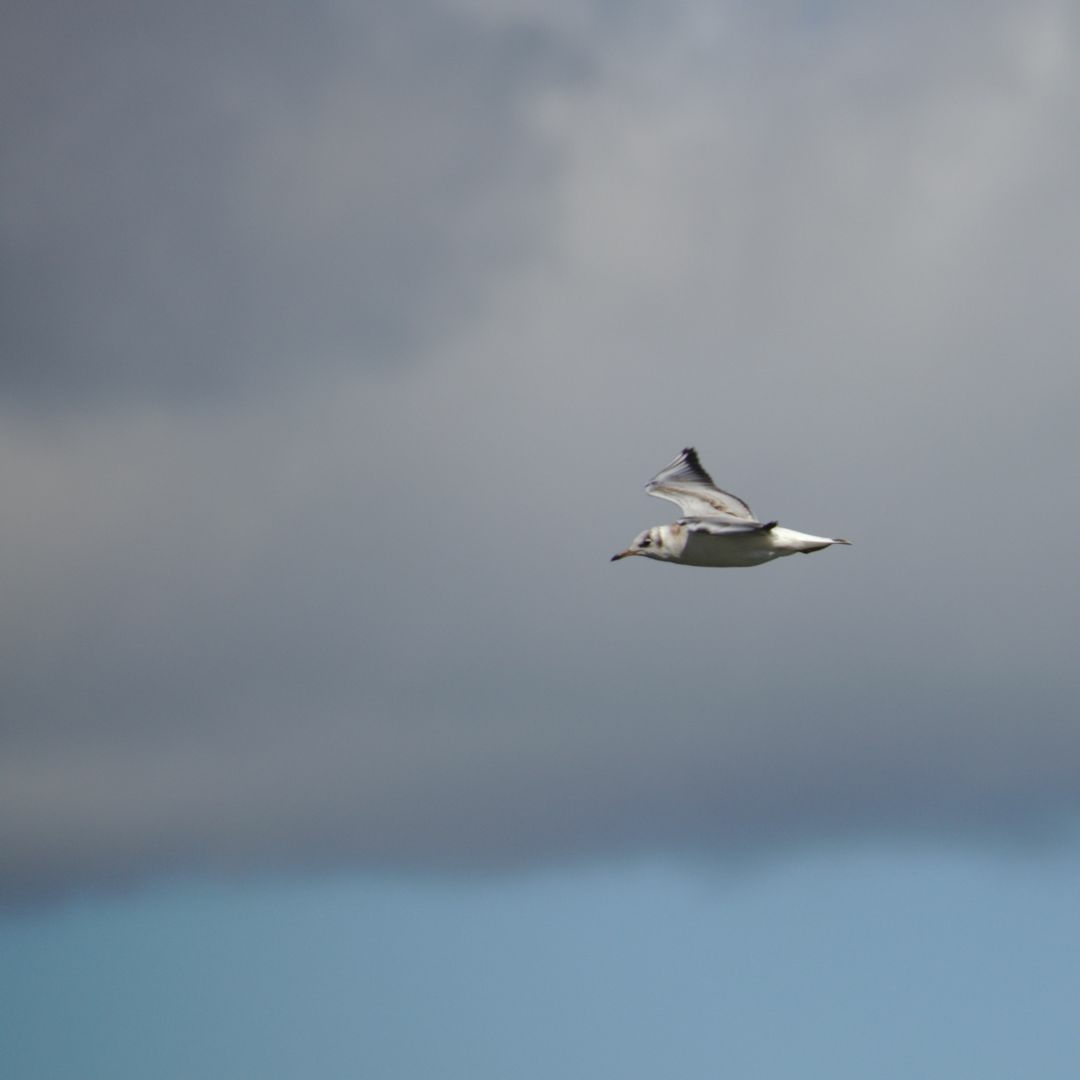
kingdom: Animalia
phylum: Chordata
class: Aves
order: Charadriiformes
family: Laridae
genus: Chroicocephalus
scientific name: Chroicocephalus ridibundus
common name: Black-headed gull
